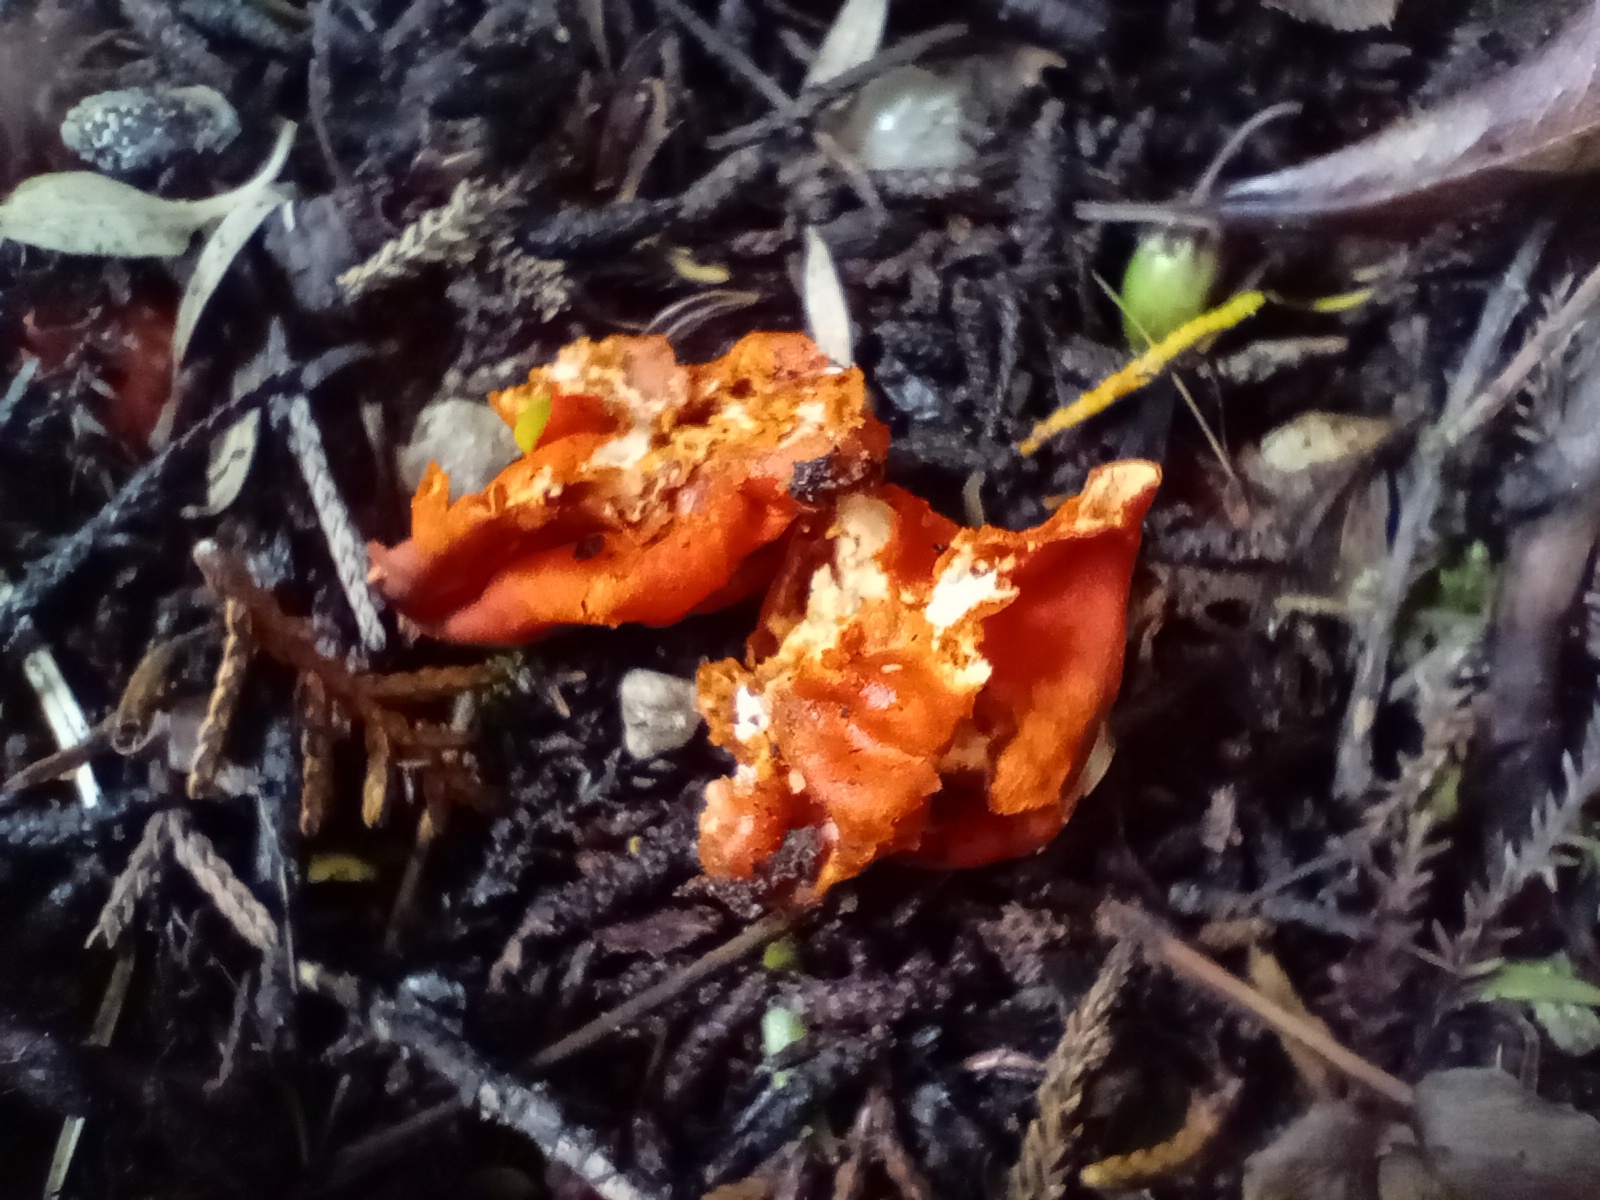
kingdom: Fungi
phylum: Ascomycota
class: Pezizomycetes
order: Pezizales
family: Pyronemataceae
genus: Paurocotylis
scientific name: Paurocotylis pila
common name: Scarlet berry truffle
